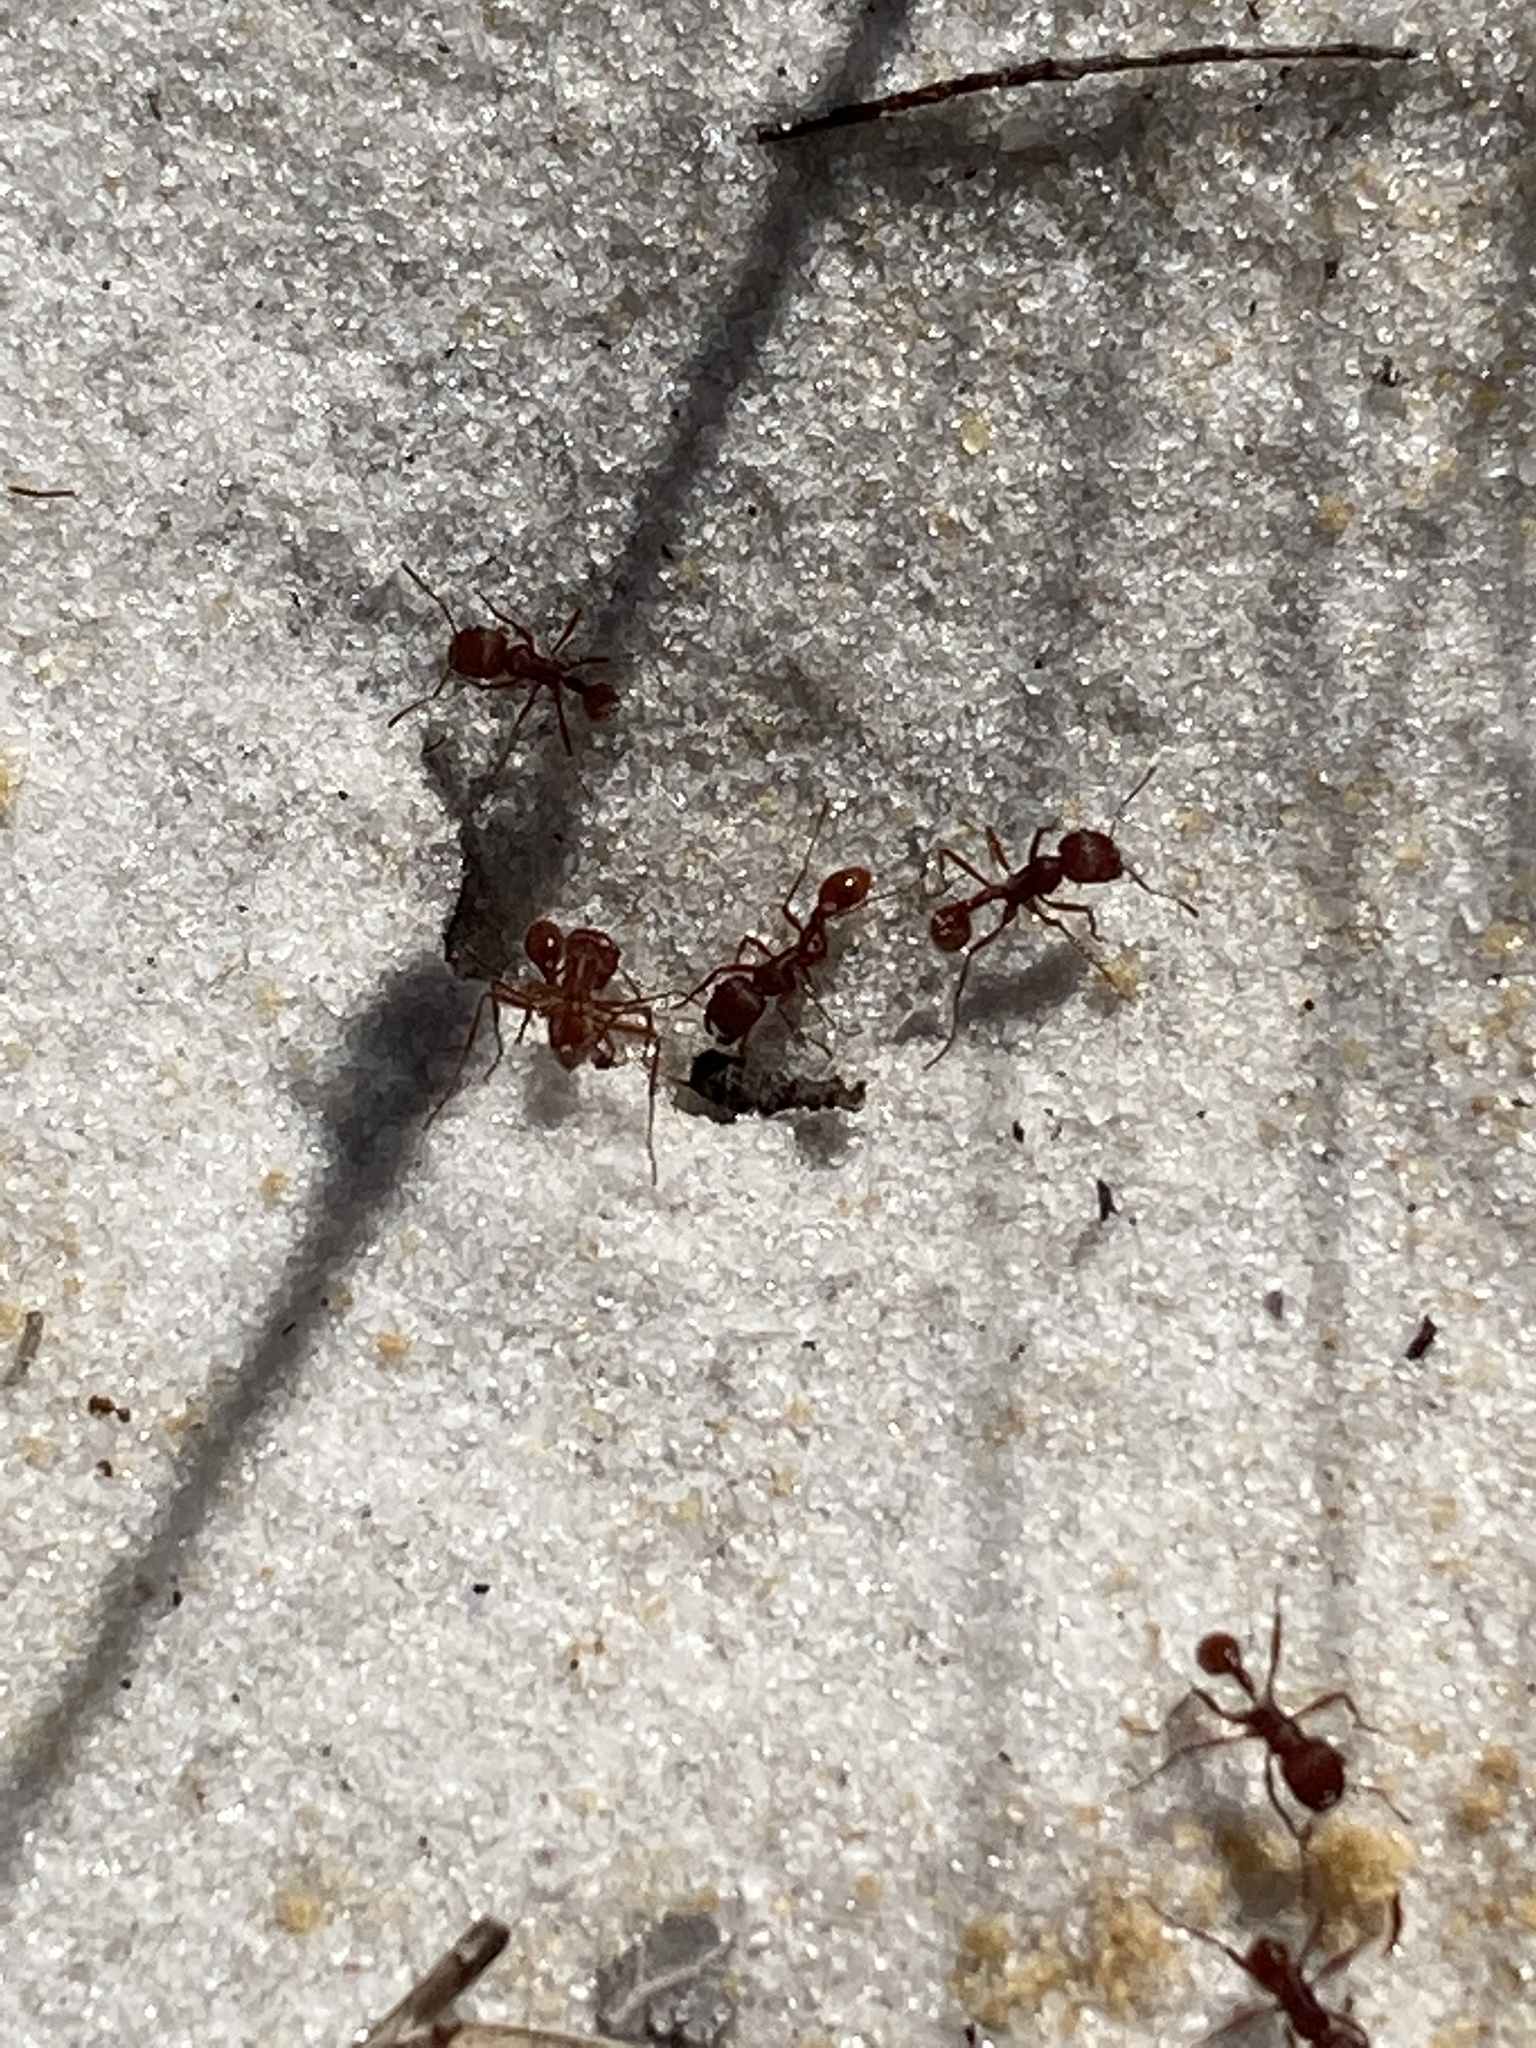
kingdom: Animalia
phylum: Arthropoda
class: Insecta
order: Hymenoptera
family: Formicidae
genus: Pogonomyrmex
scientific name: Pogonomyrmex badius
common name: Florida harvester ant
